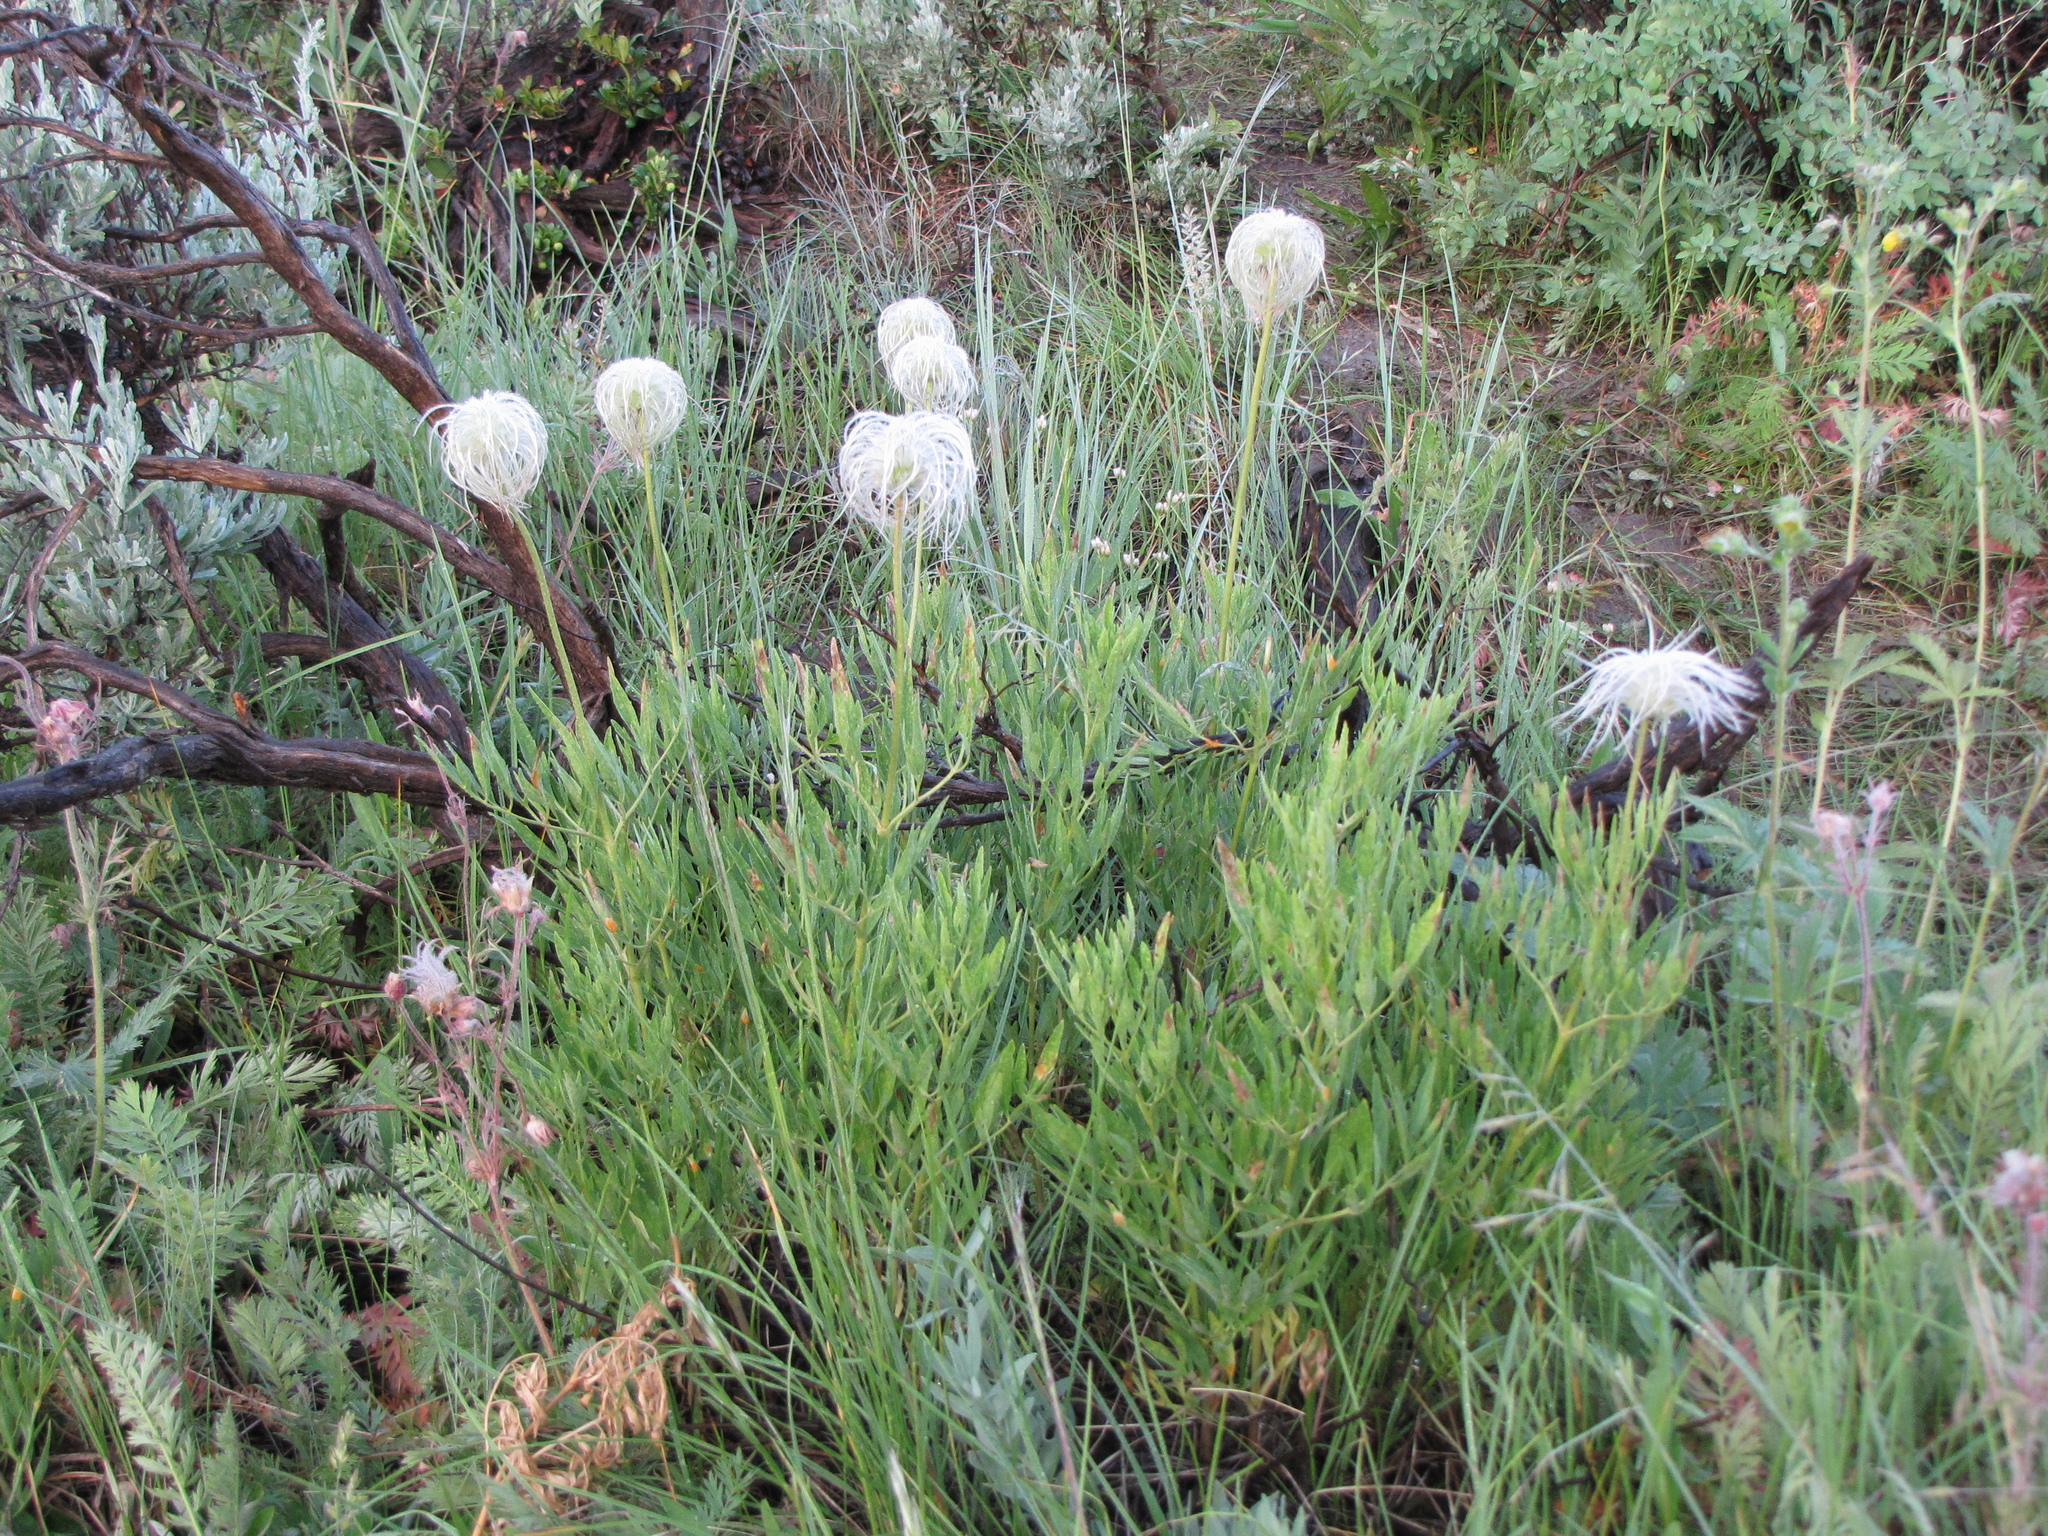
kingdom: Plantae
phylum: Tracheophyta
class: Magnoliopsida
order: Ranunculales
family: Ranunculaceae
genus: Clematis
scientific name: Clematis hirsutissima
